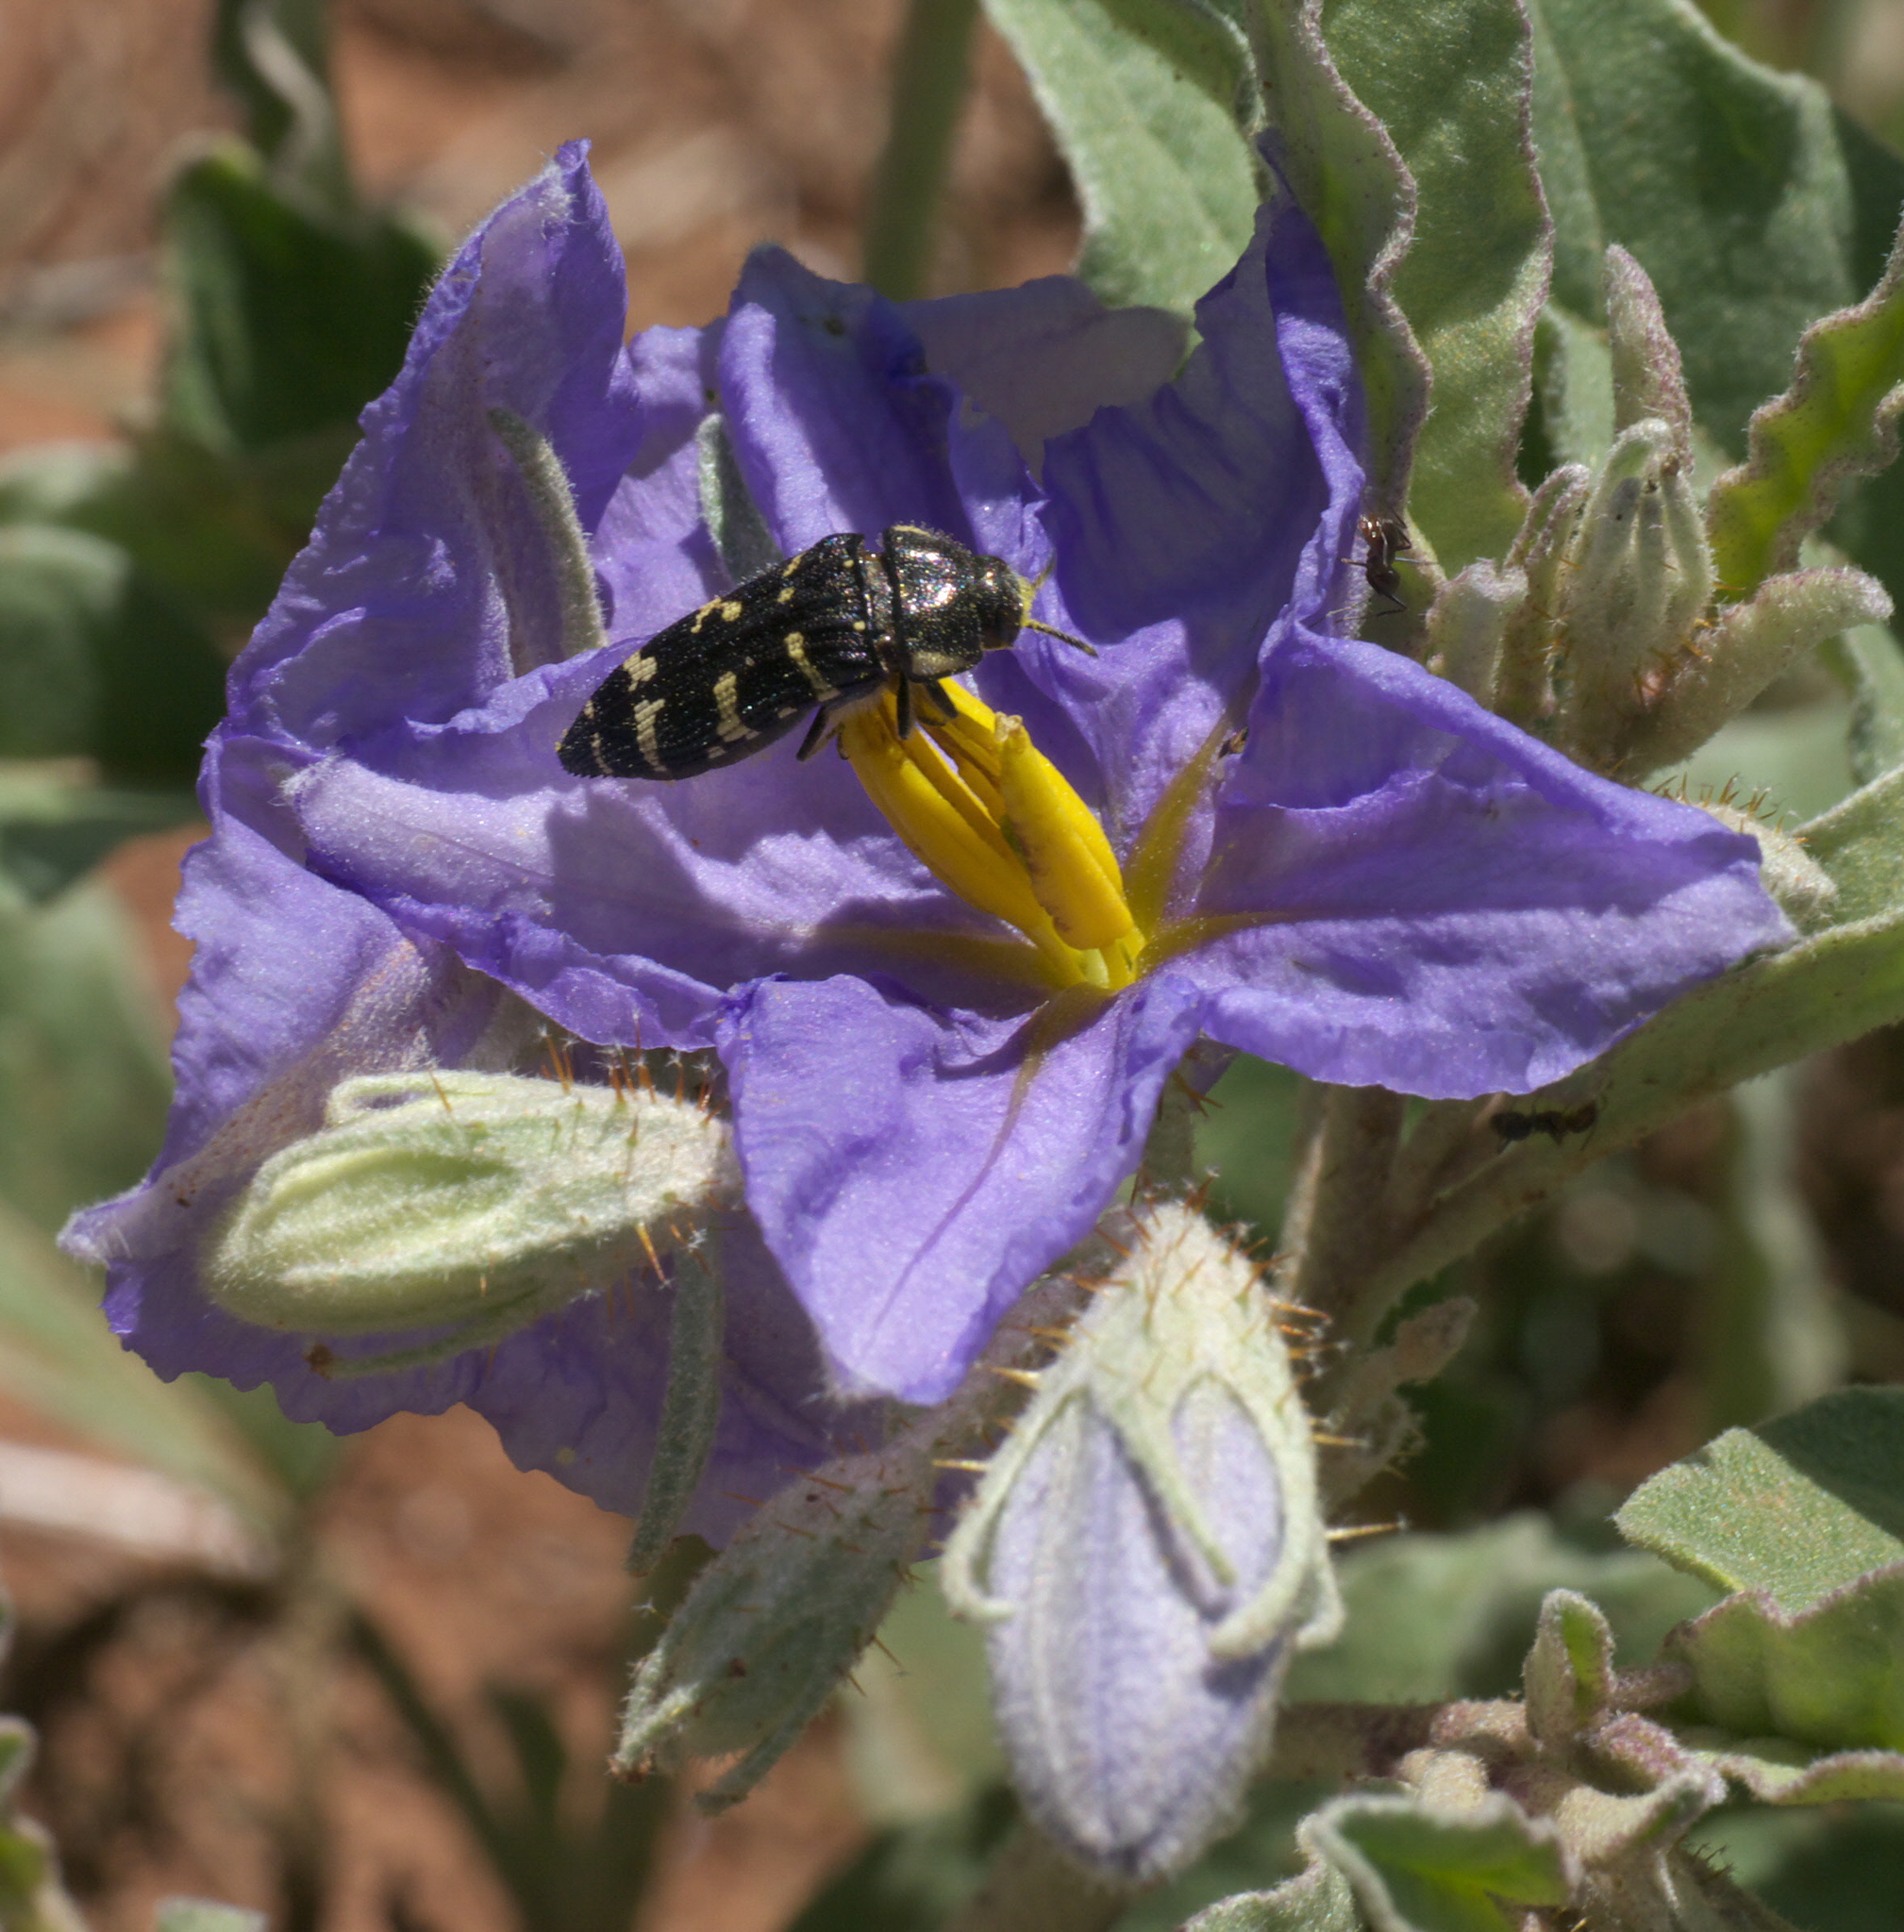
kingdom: Animalia
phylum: Arthropoda
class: Insecta
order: Coleoptera
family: Buprestidae
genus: Acmaeodera
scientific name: Acmaeodera macra
